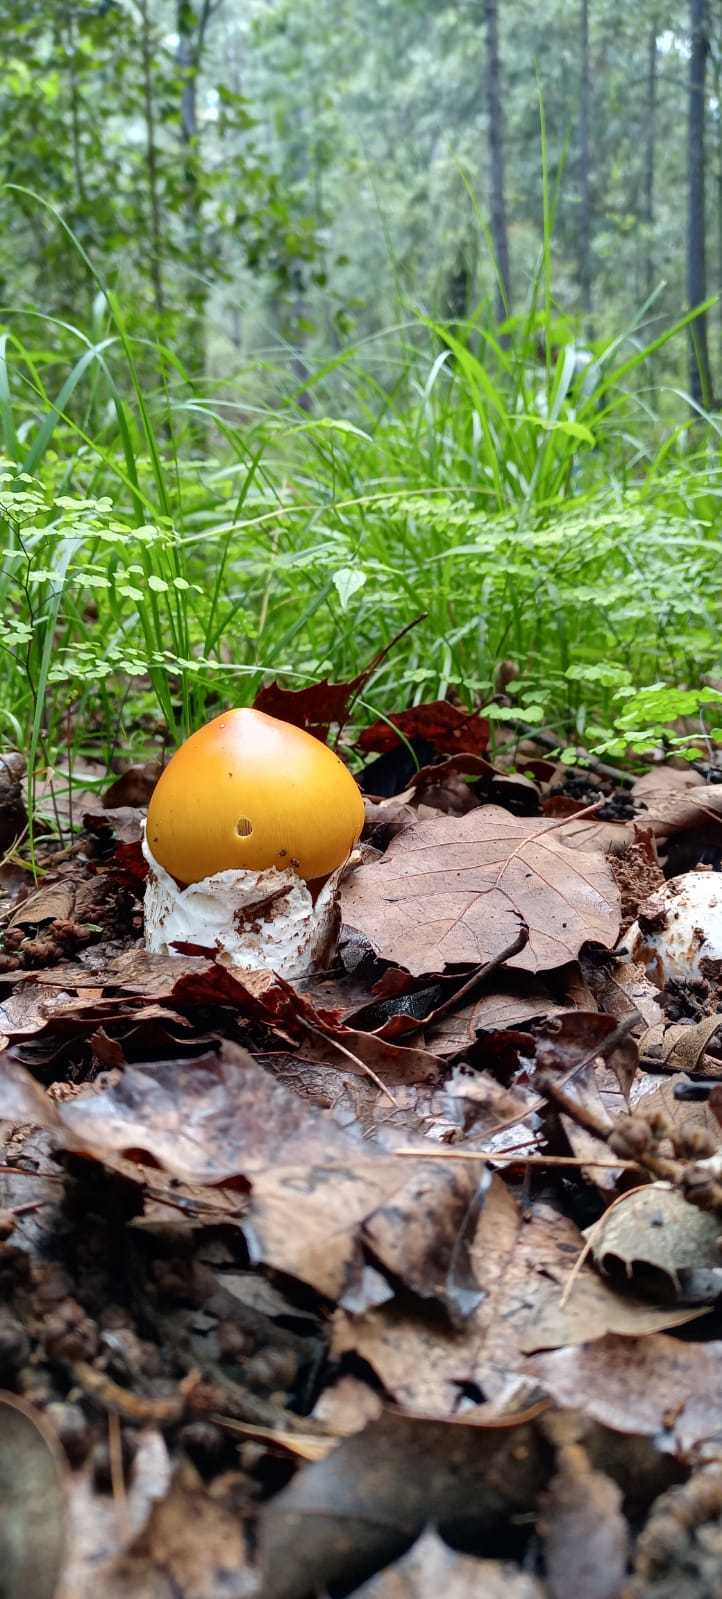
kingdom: Fungi
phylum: Basidiomycota
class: Agaricomycetes
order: Agaricales
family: Amanitaceae
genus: Amanita
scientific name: Amanita laurae
